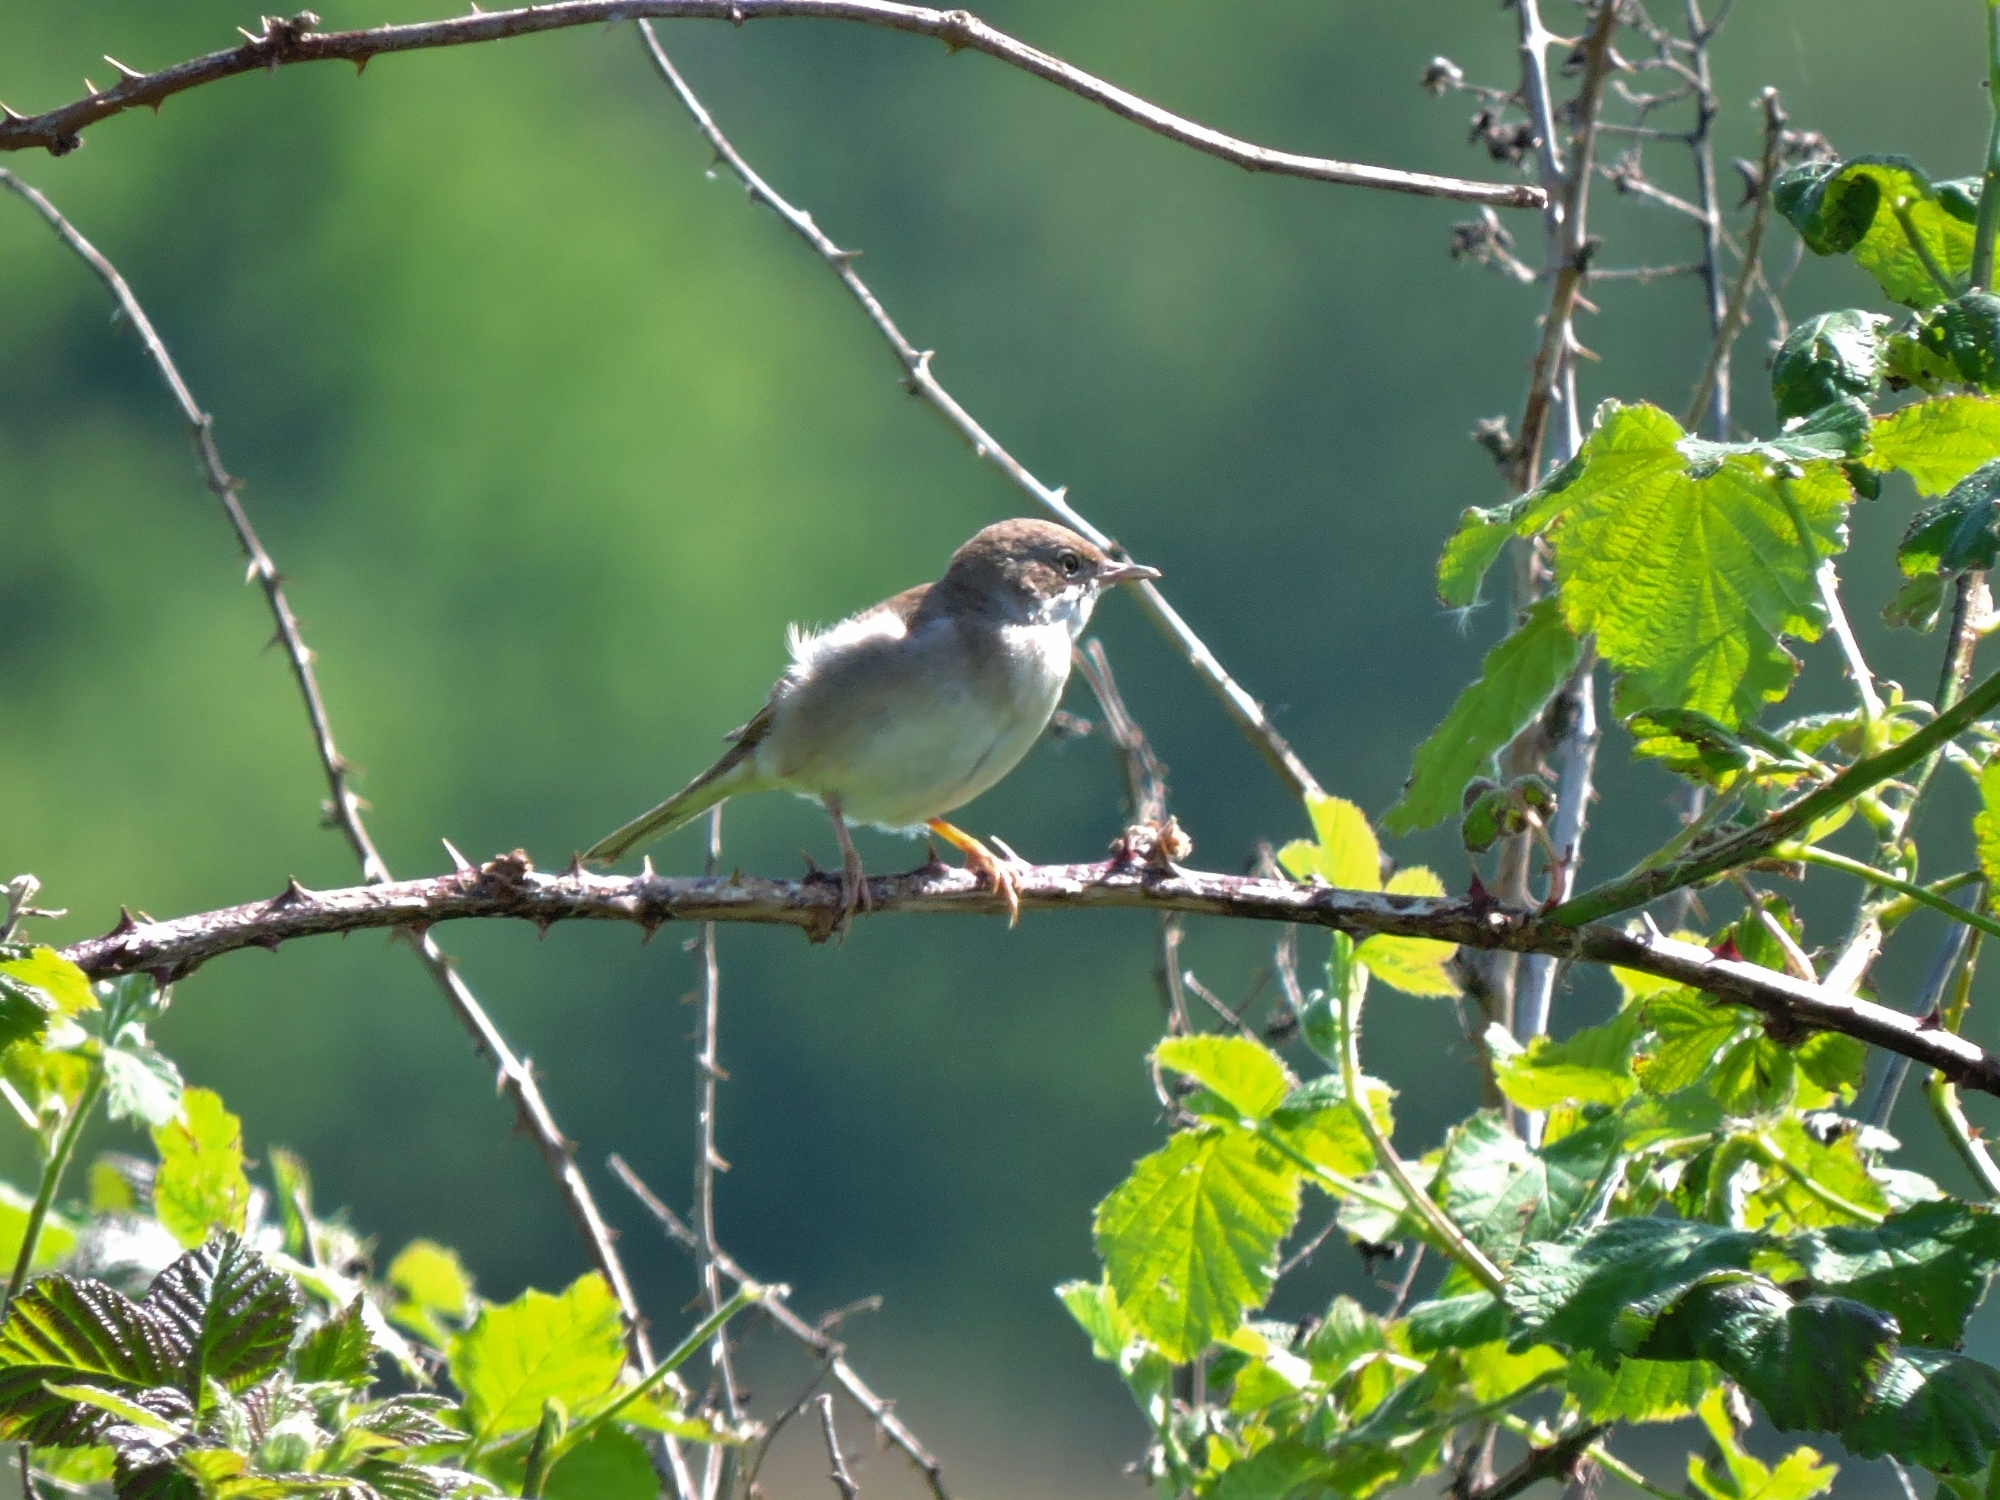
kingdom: Animalia
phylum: Chordata
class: Aves
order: Passeriformes
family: Sylviidae
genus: Sylvia
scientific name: Sylvia communis
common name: Common whitethroat
